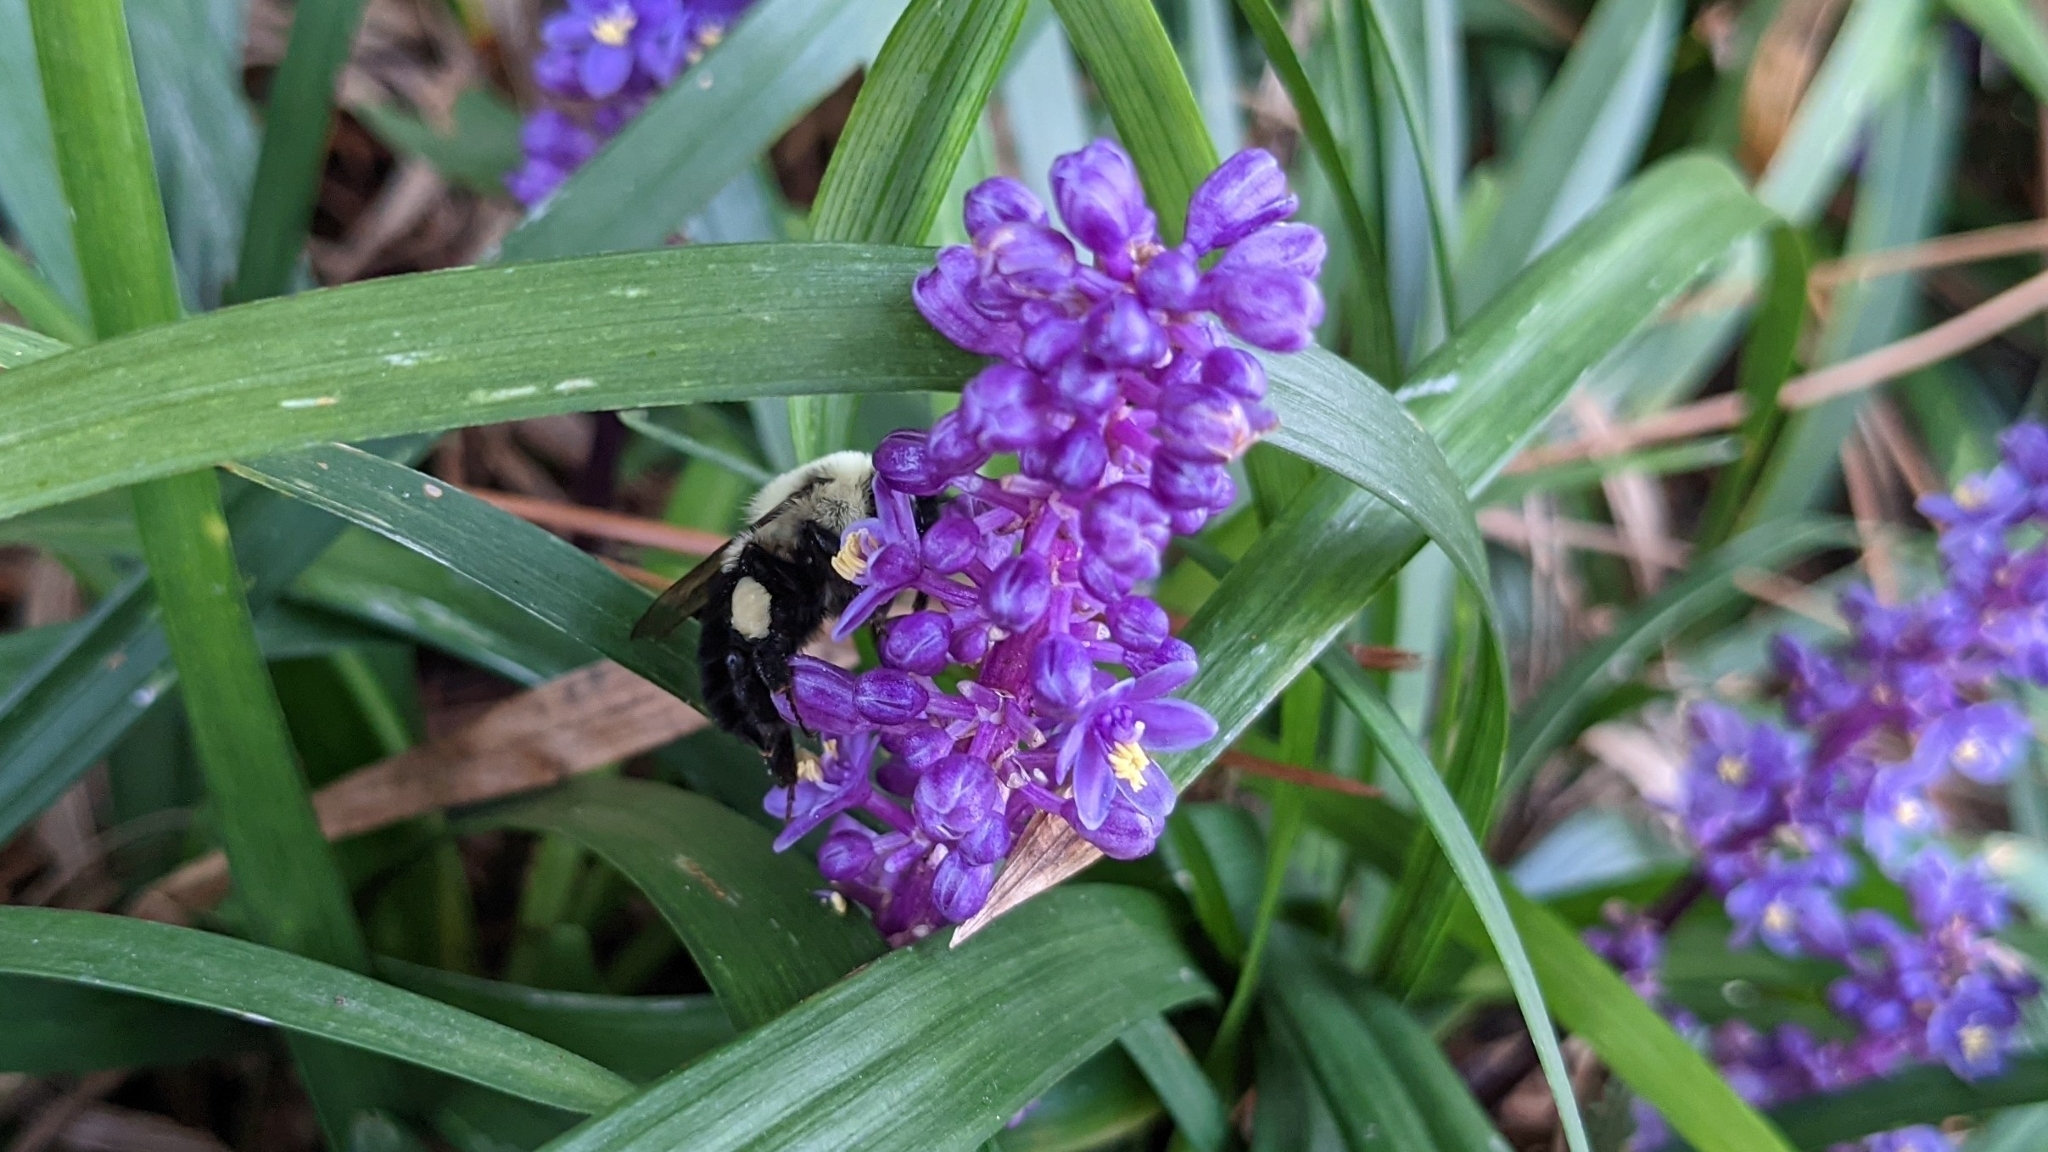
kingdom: Animalia
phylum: Arthropoda
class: Insecta
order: Hymenoptera
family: Apidae
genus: Bombus
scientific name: Bombus impatiens
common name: Common eastern bumble bee
